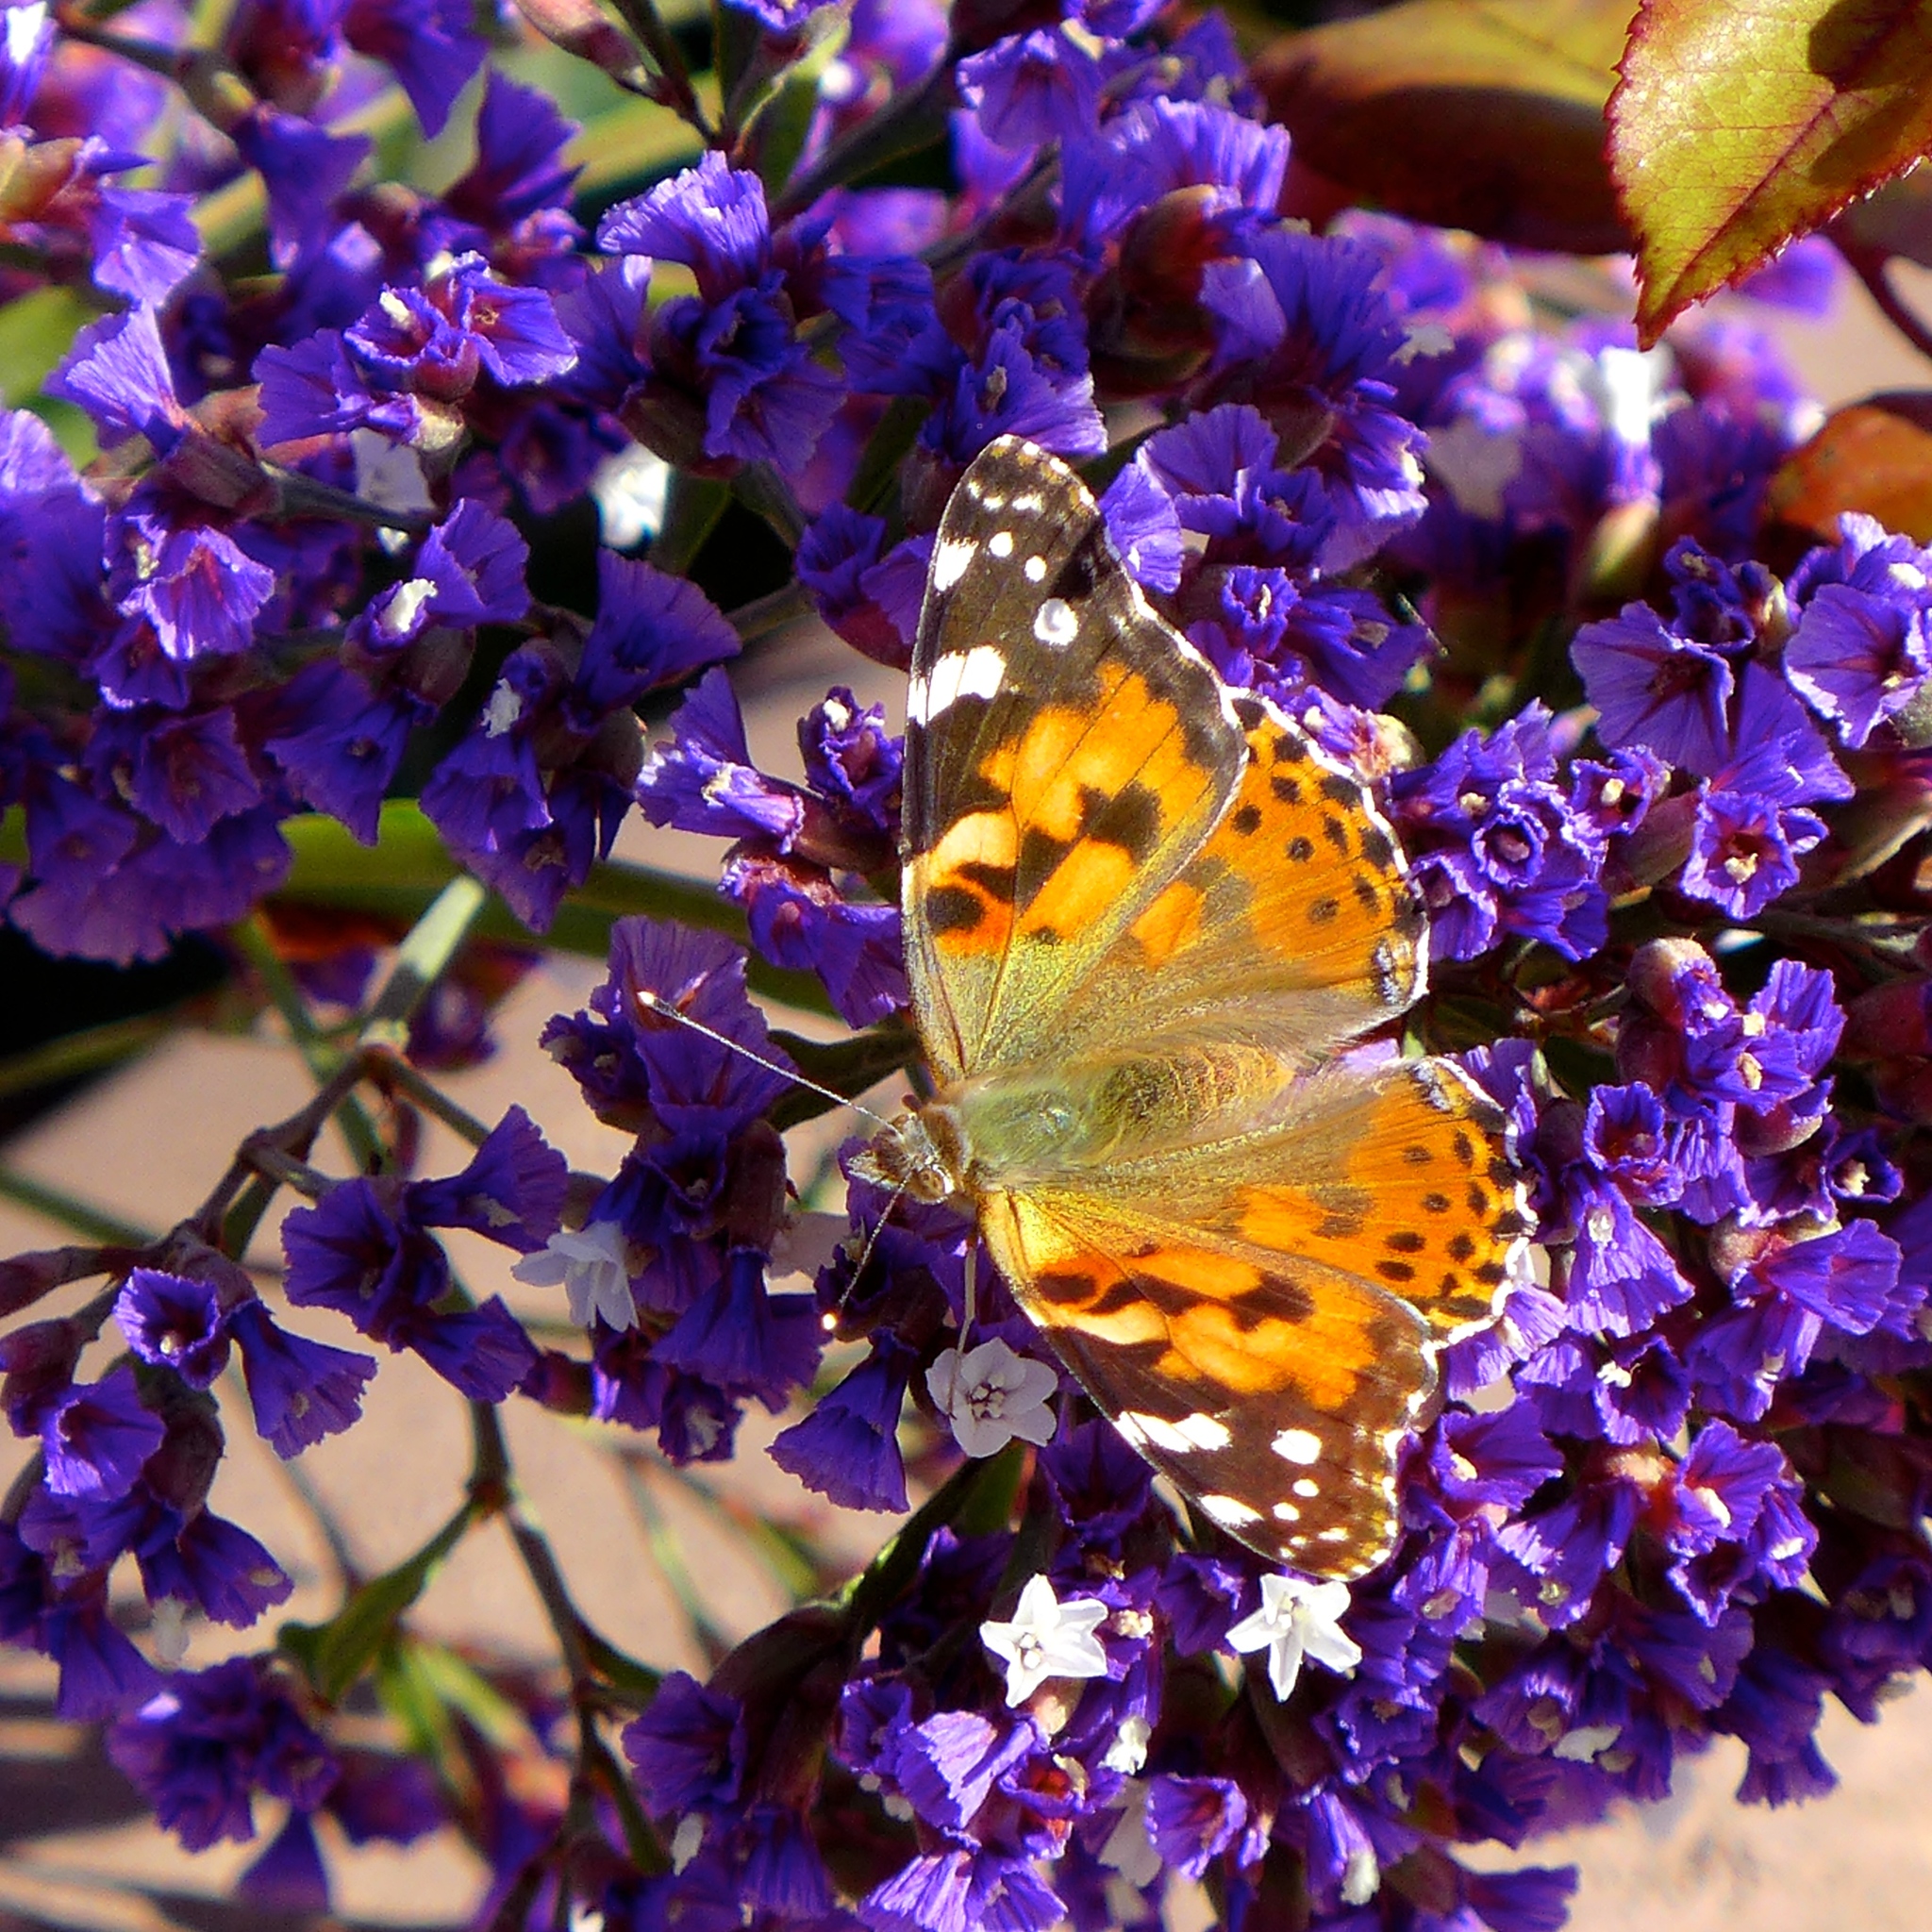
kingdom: Animalia
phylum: Arthropoda
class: Insecta
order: Lepidoptera
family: Nymphalidae
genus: Vanessa
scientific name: Vanessa cardui
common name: Painted lady
